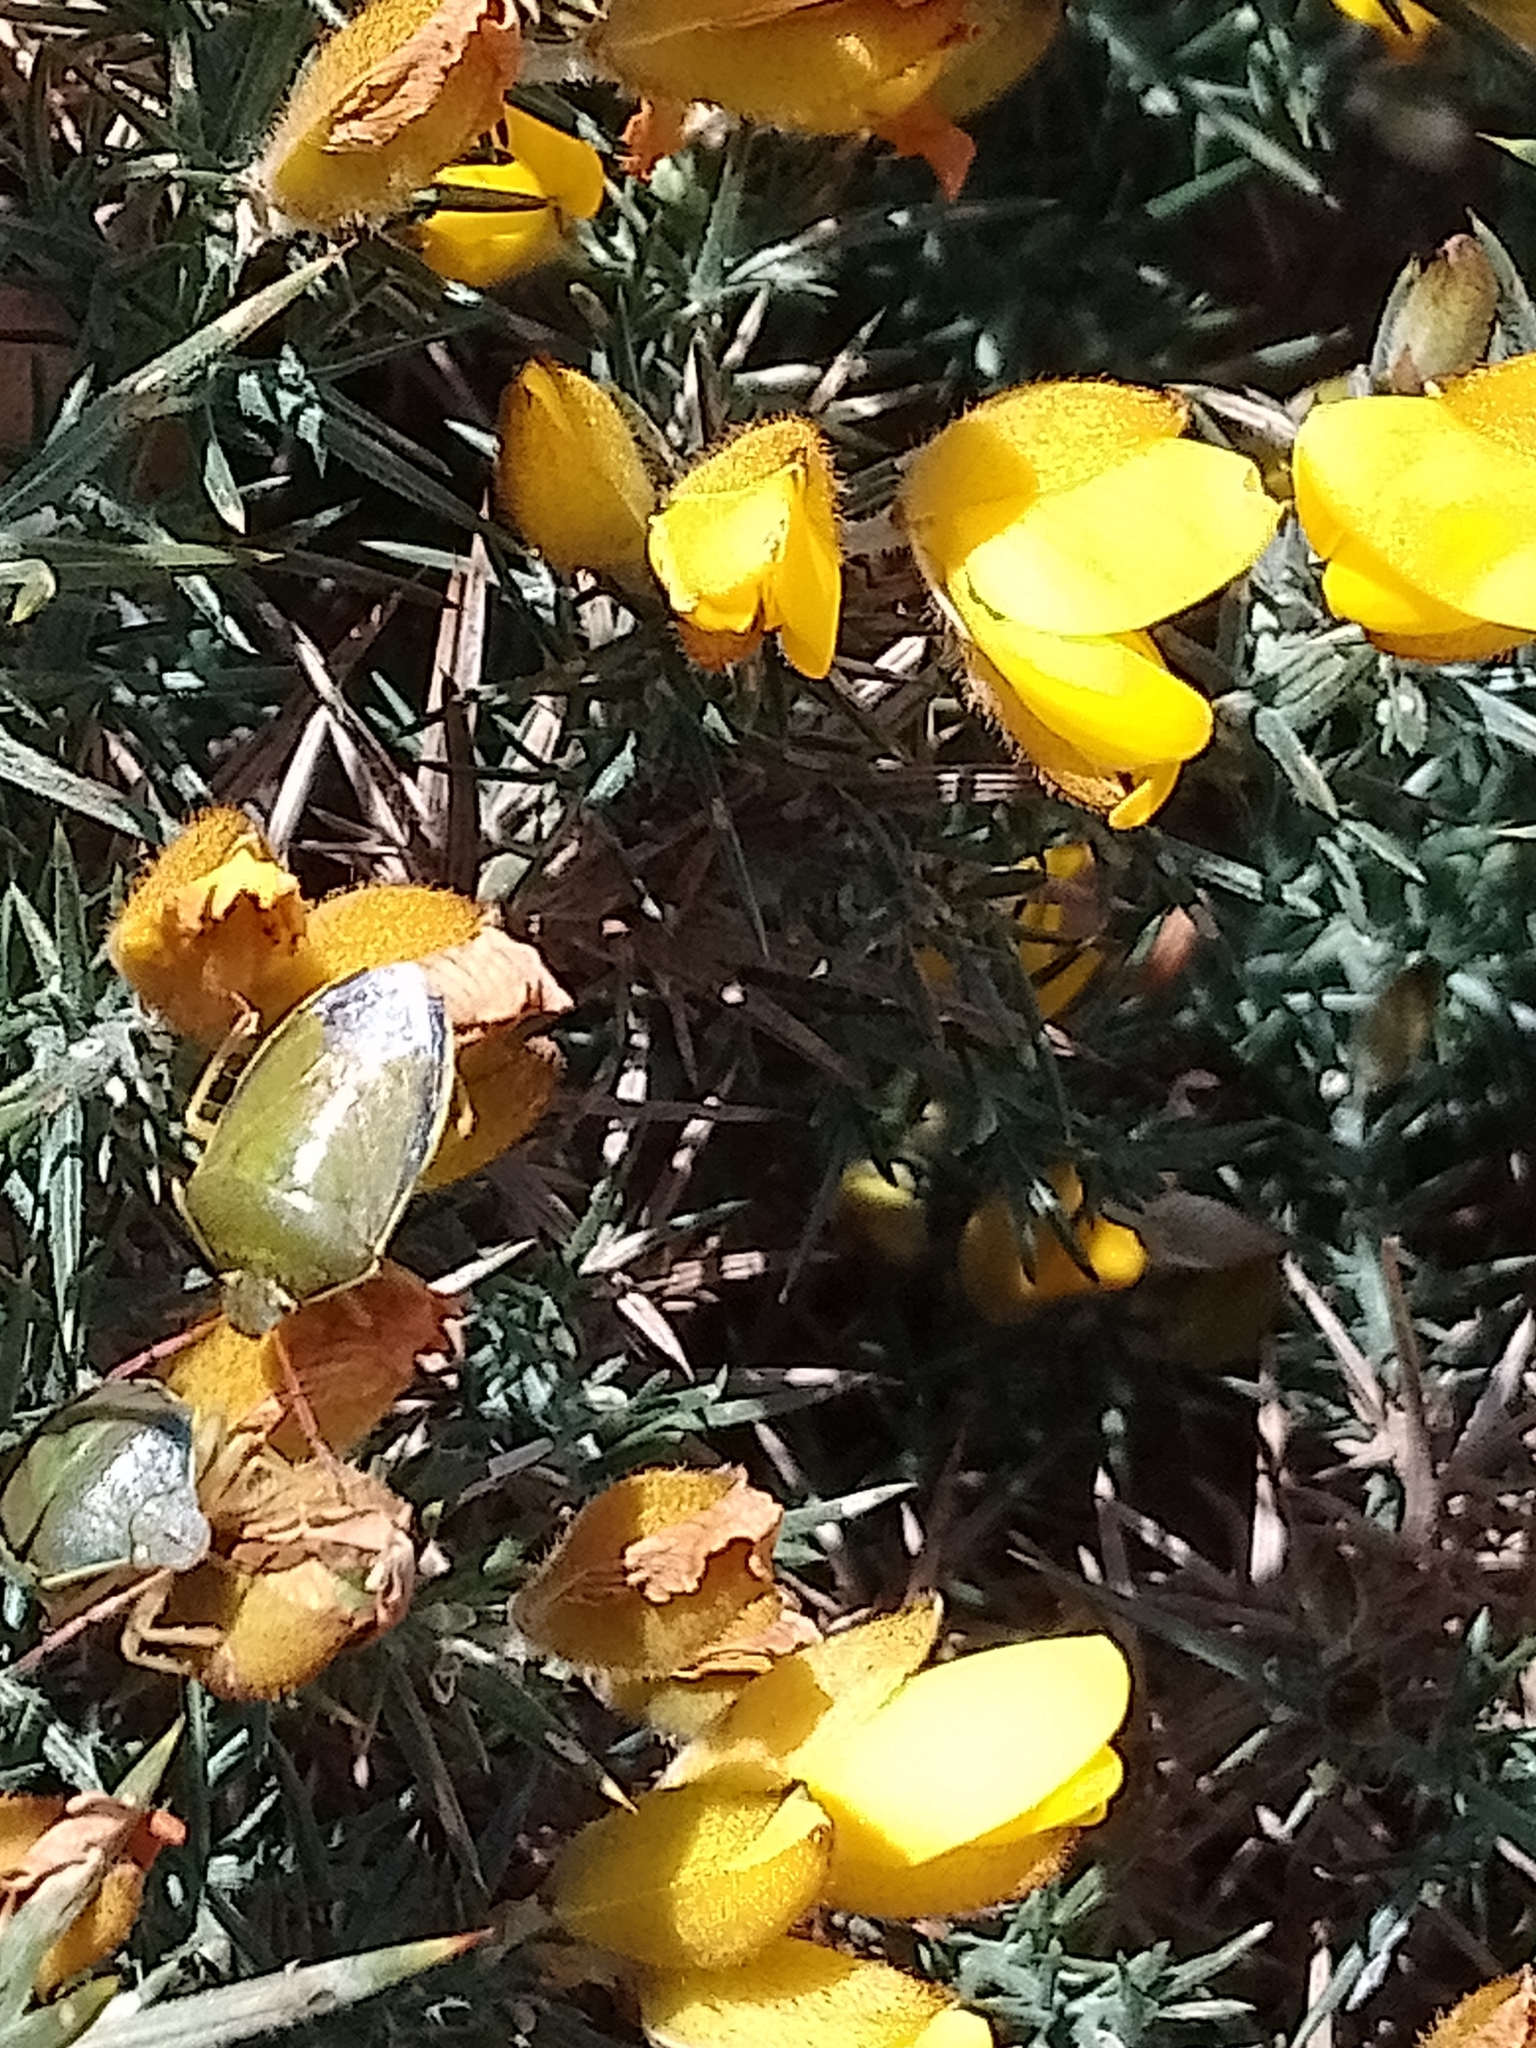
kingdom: Animalia
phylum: Arthropoda
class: Insecta
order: Hemiptera
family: Pentatomidae
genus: Piezodorus
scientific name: Piezodorus lituratus
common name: Stink bug
